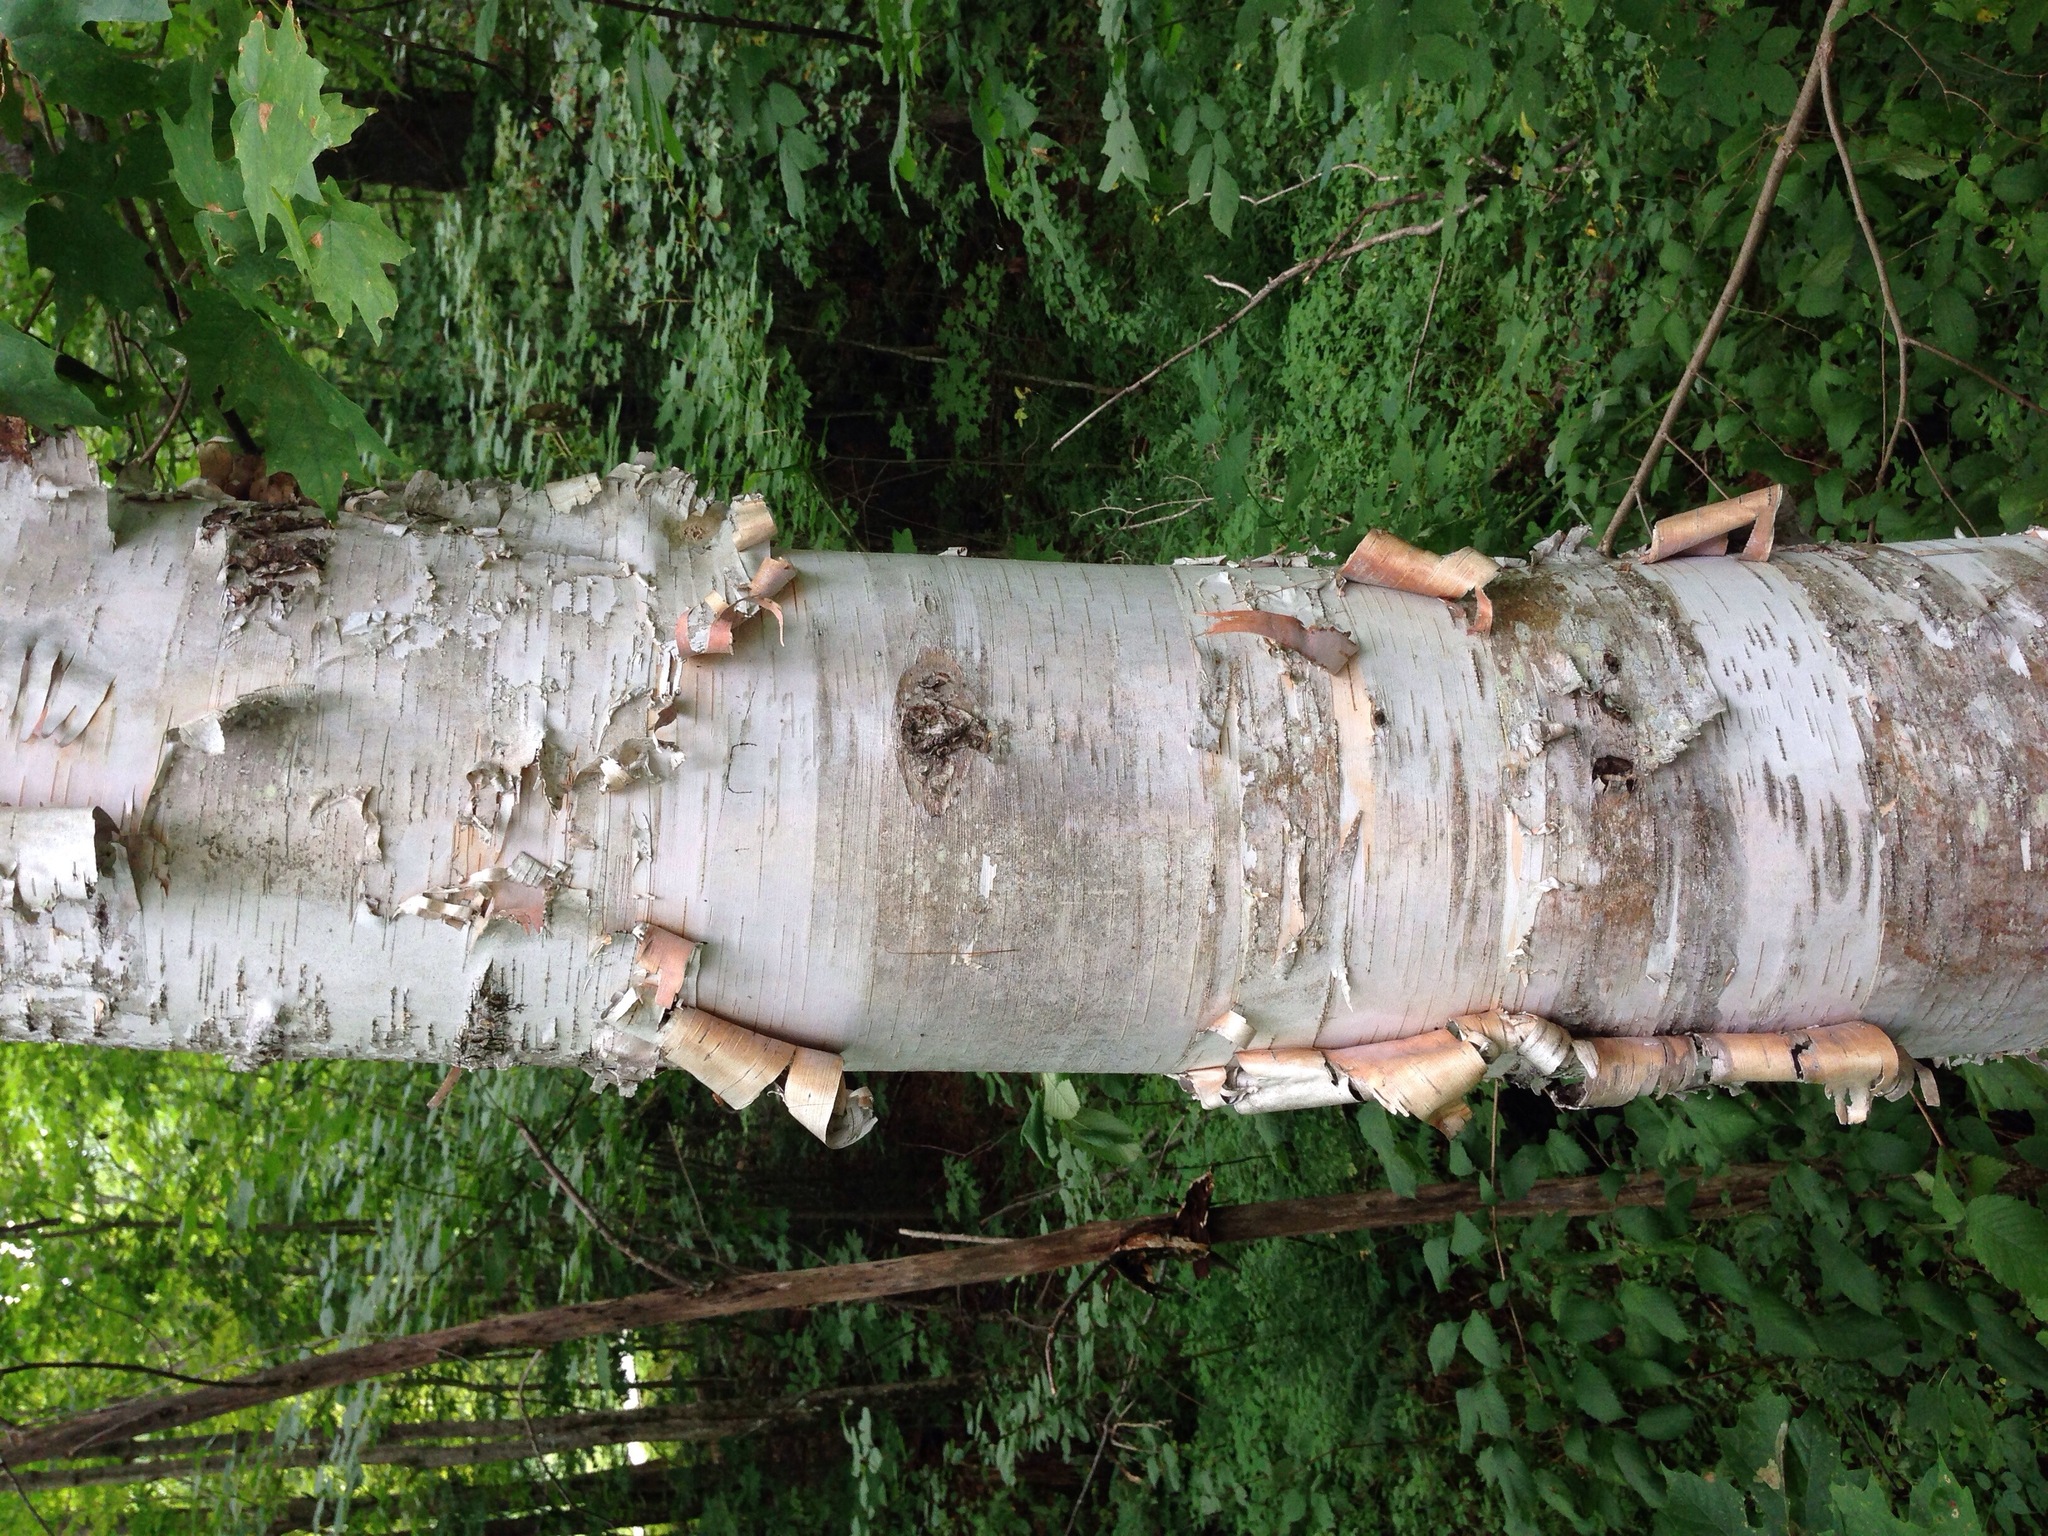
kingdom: Plantae
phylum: Tracheophyta
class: Magnoliopsida
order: Fagales
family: Betulaceae
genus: Betula
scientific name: Betula papyrifera
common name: Paper birch
